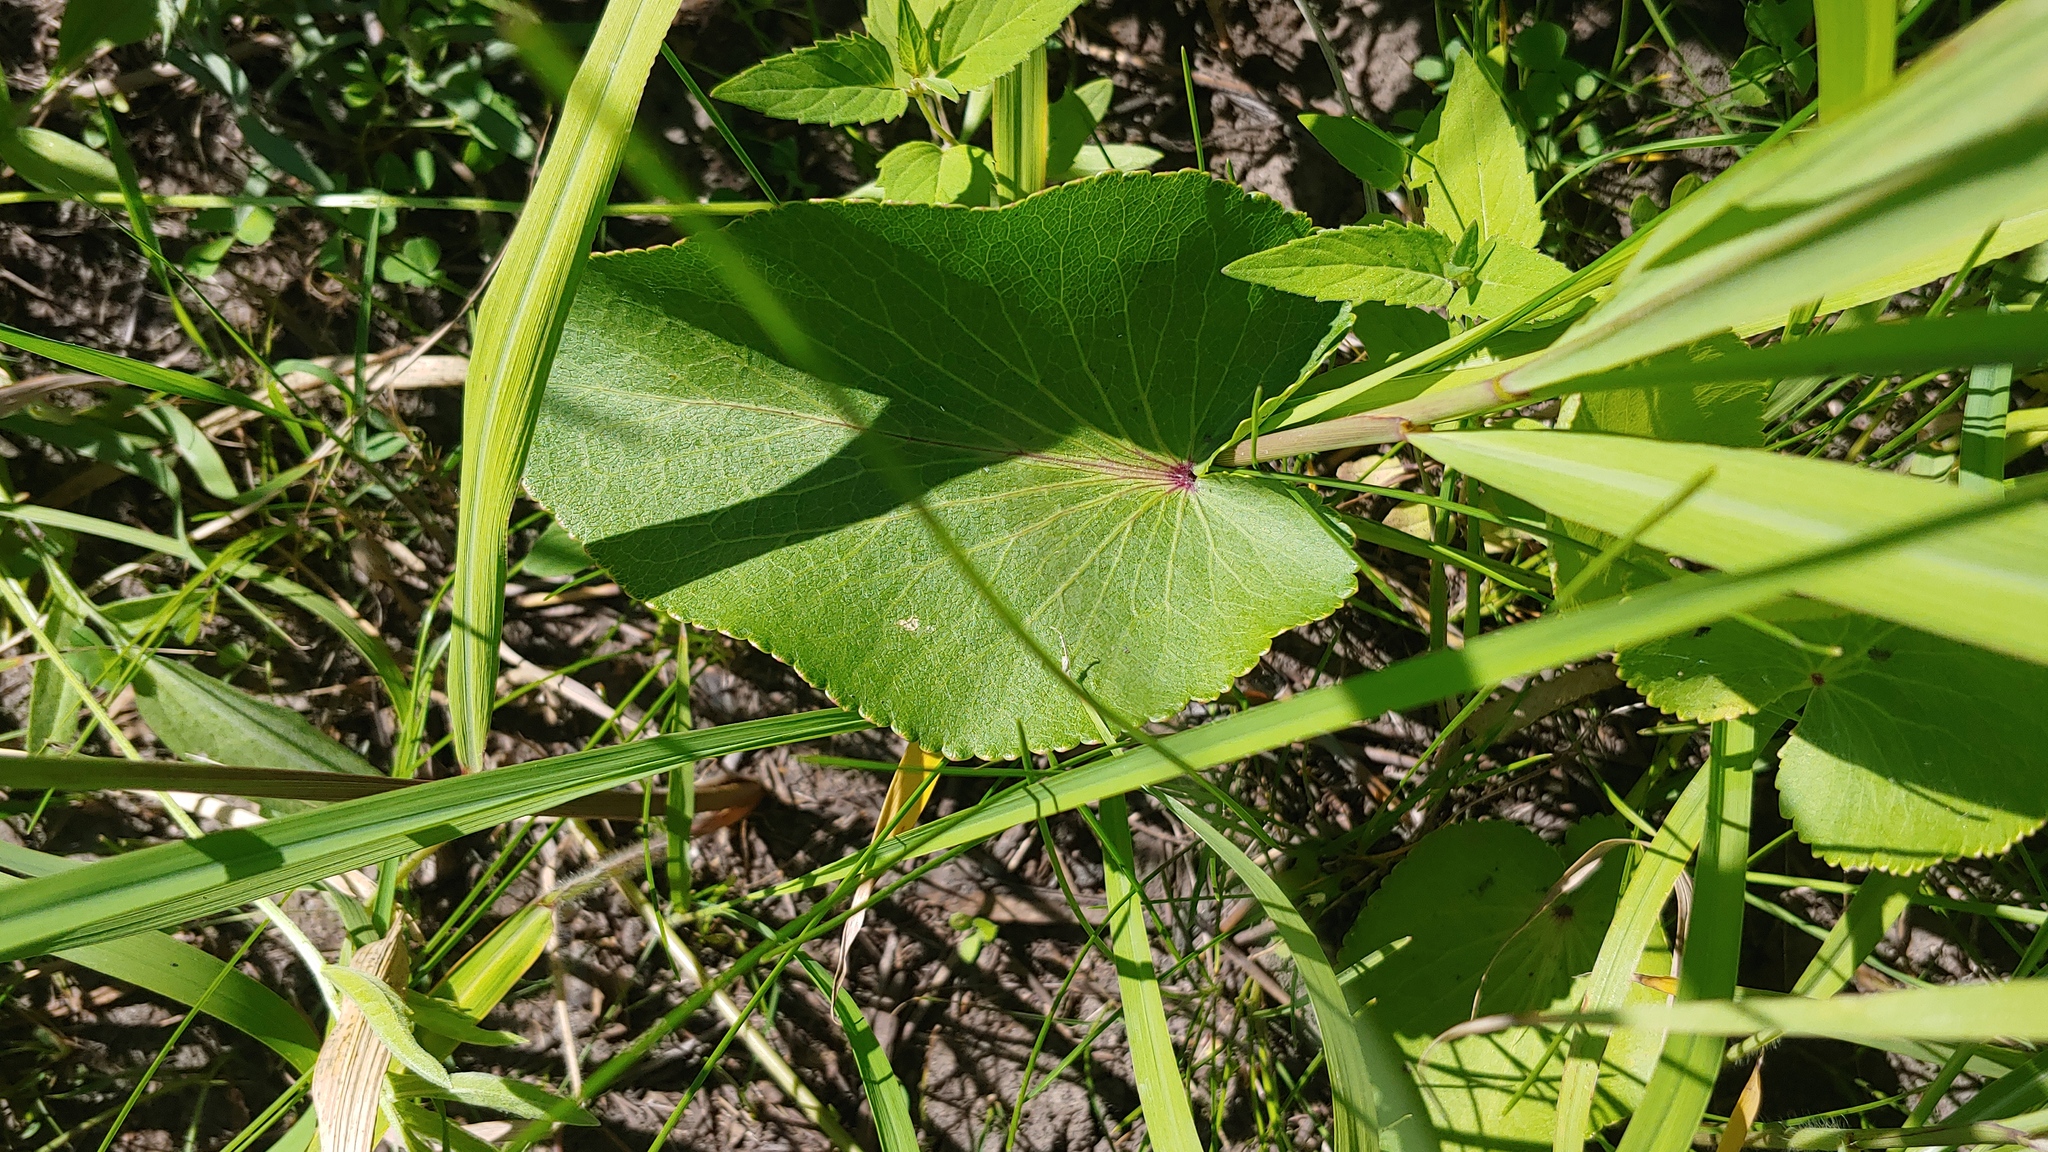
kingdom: Plantae
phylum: Tracheophyta
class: Magnoliopsida
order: Apiales
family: Apiaceae
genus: Zizia
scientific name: Zizia aptera
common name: Heart-leaved alexanders
